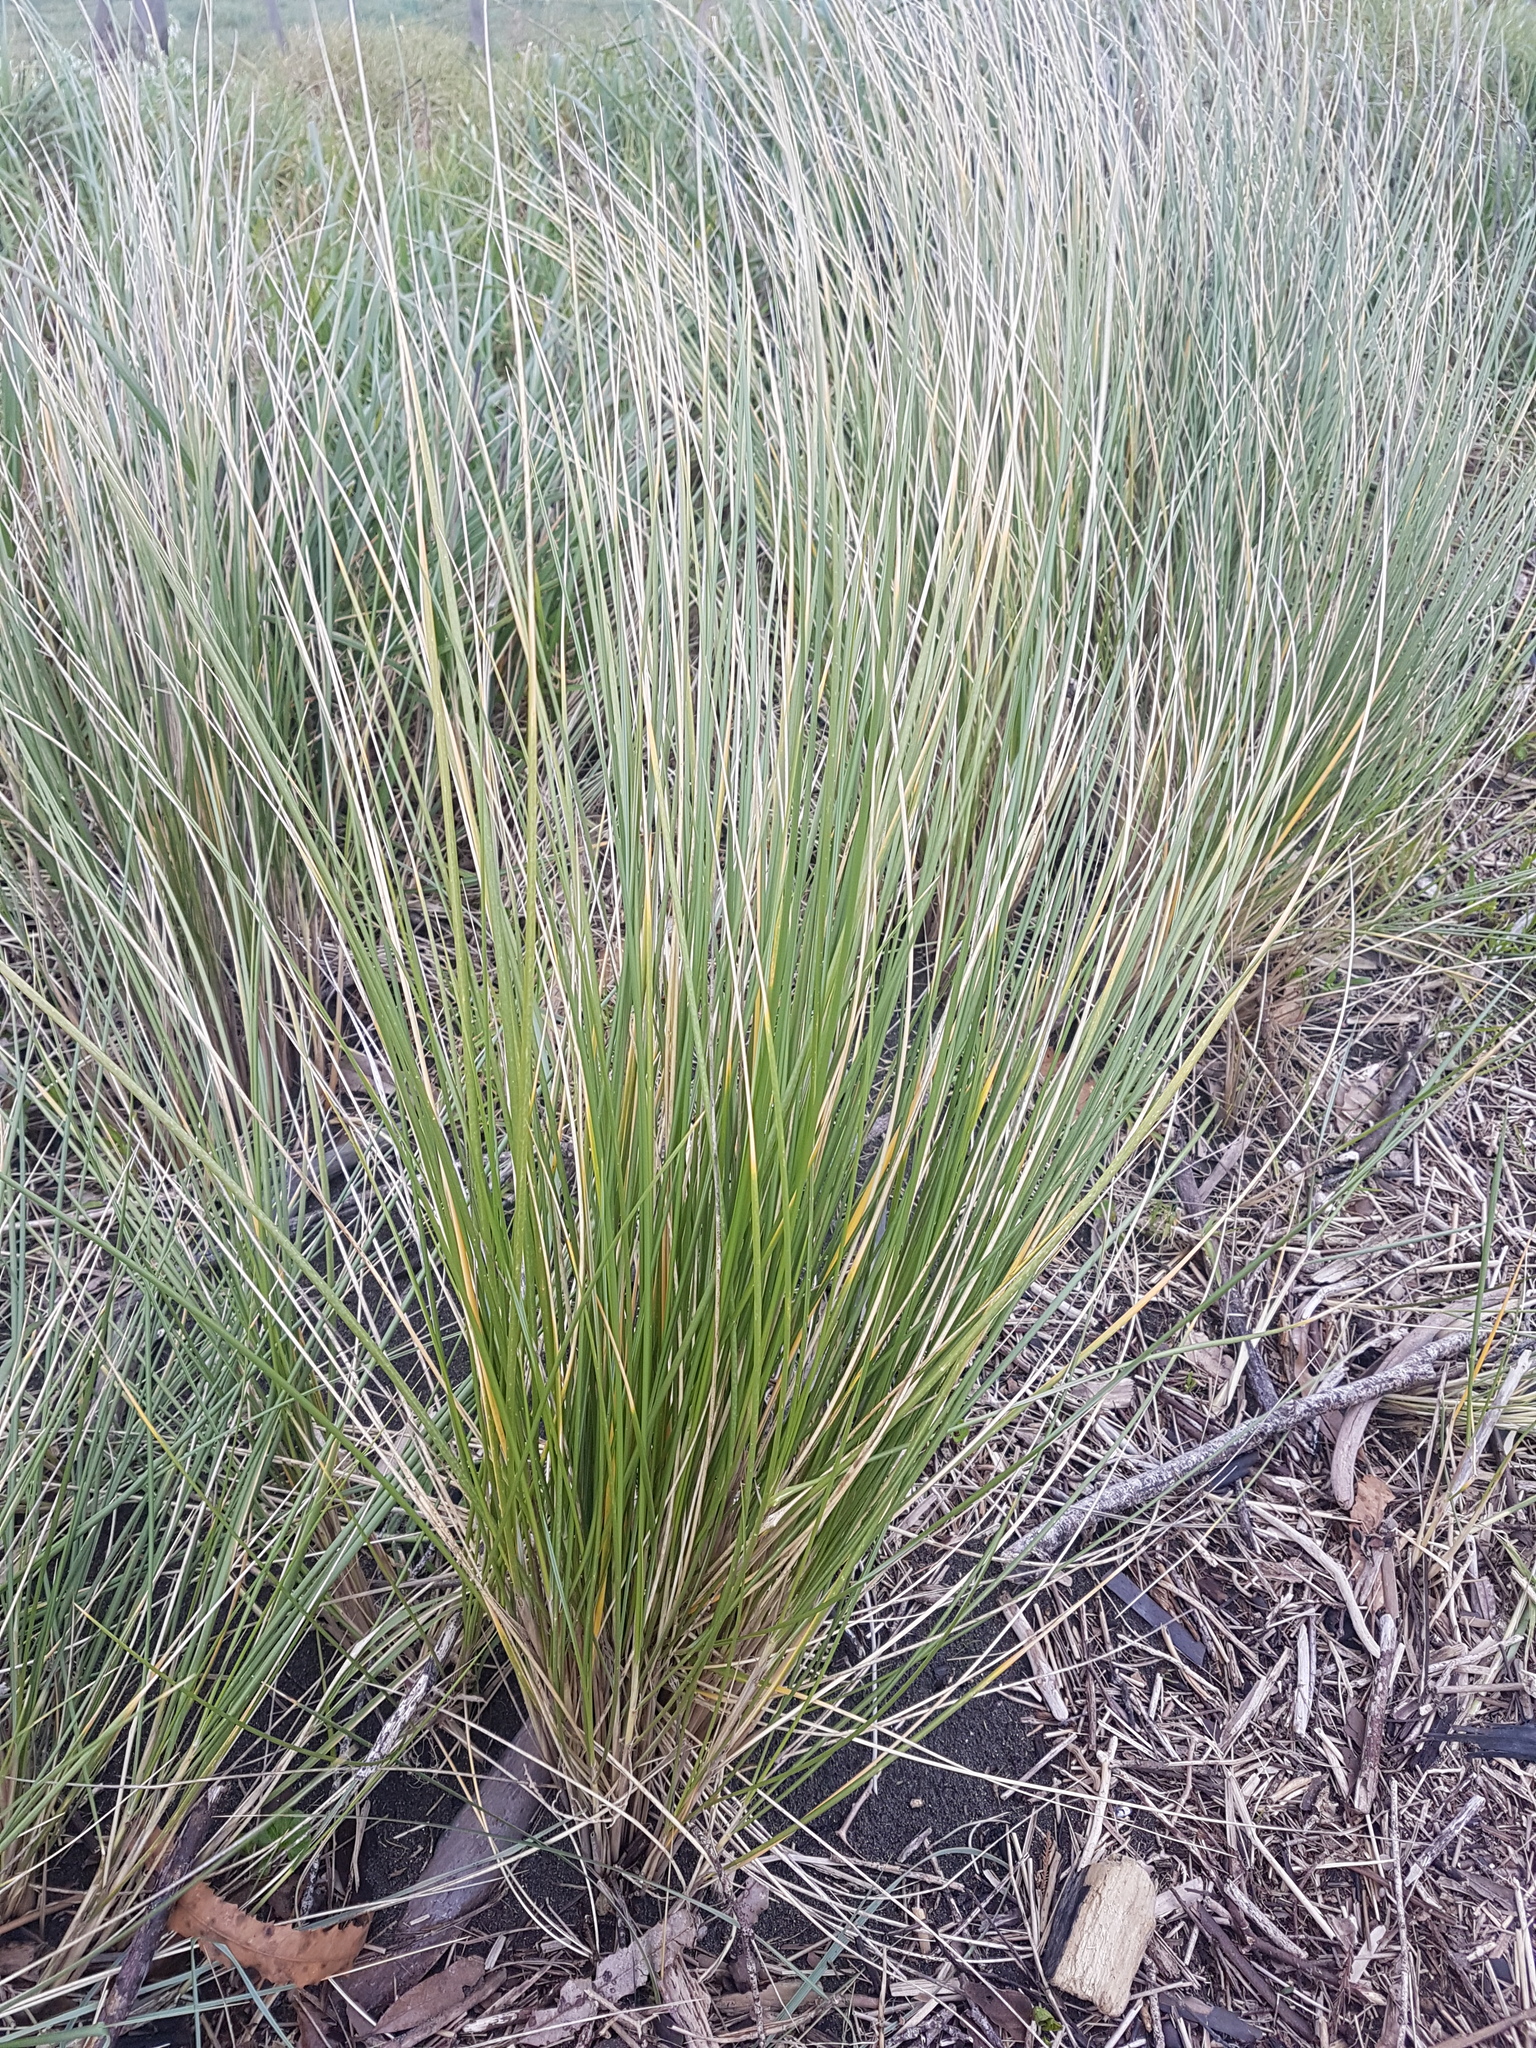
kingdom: Plantae
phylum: Tracheophyta
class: Liliopsida
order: Poales
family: Poaceae
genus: Calamagrostis
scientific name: Calamagrostis arenaria
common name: European beachgrass
